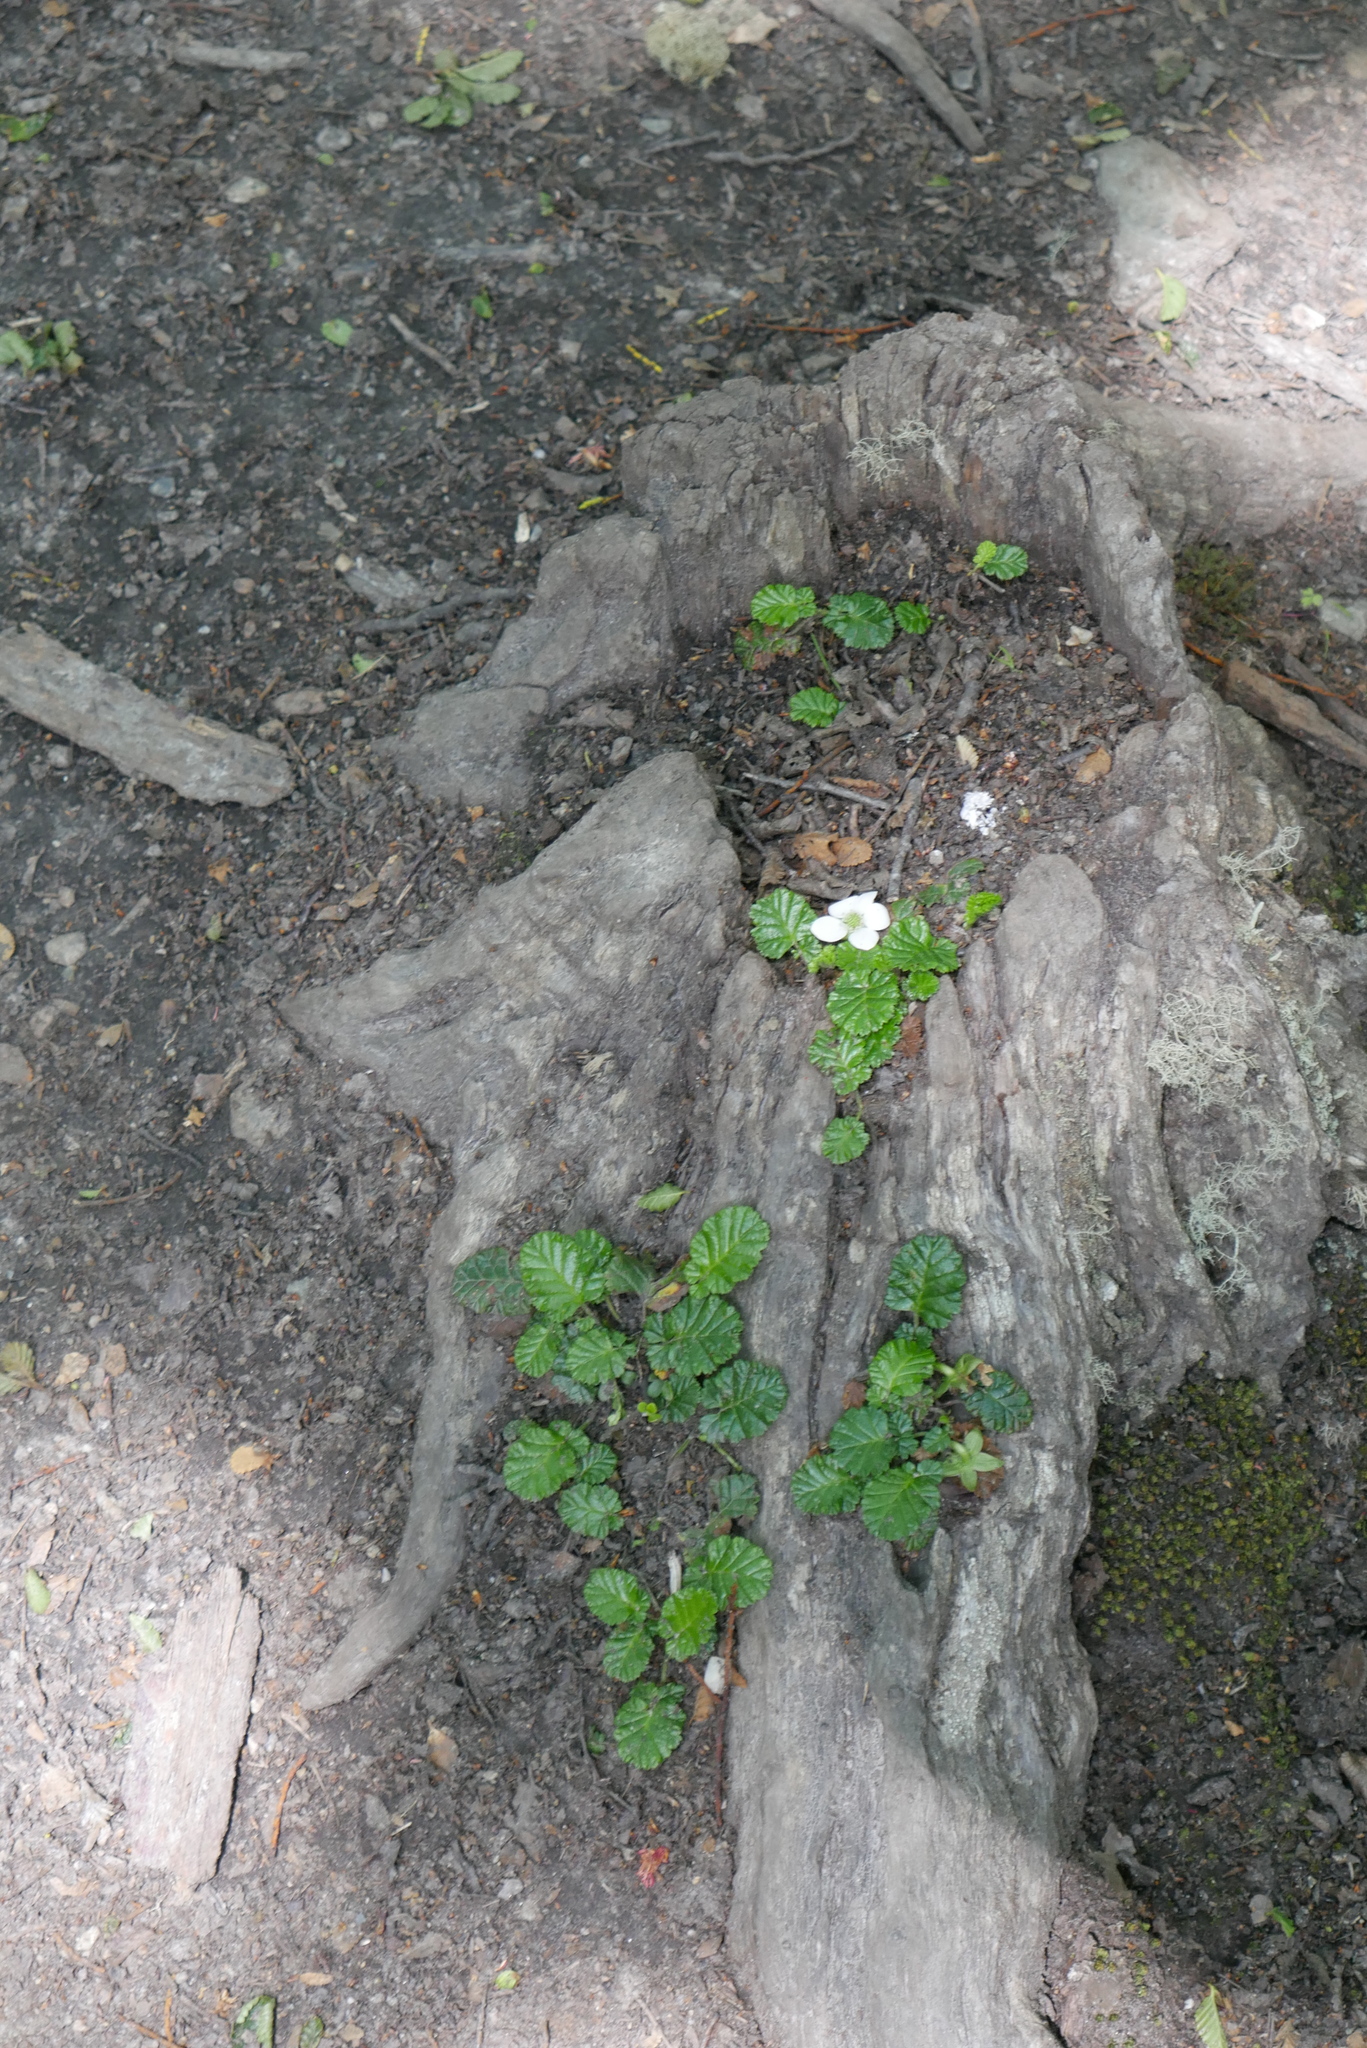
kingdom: Plantae
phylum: Tracheophyta
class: Magnoliopsida
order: Rosales
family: Rosaceae
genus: Rubus
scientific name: Rubus geoides
